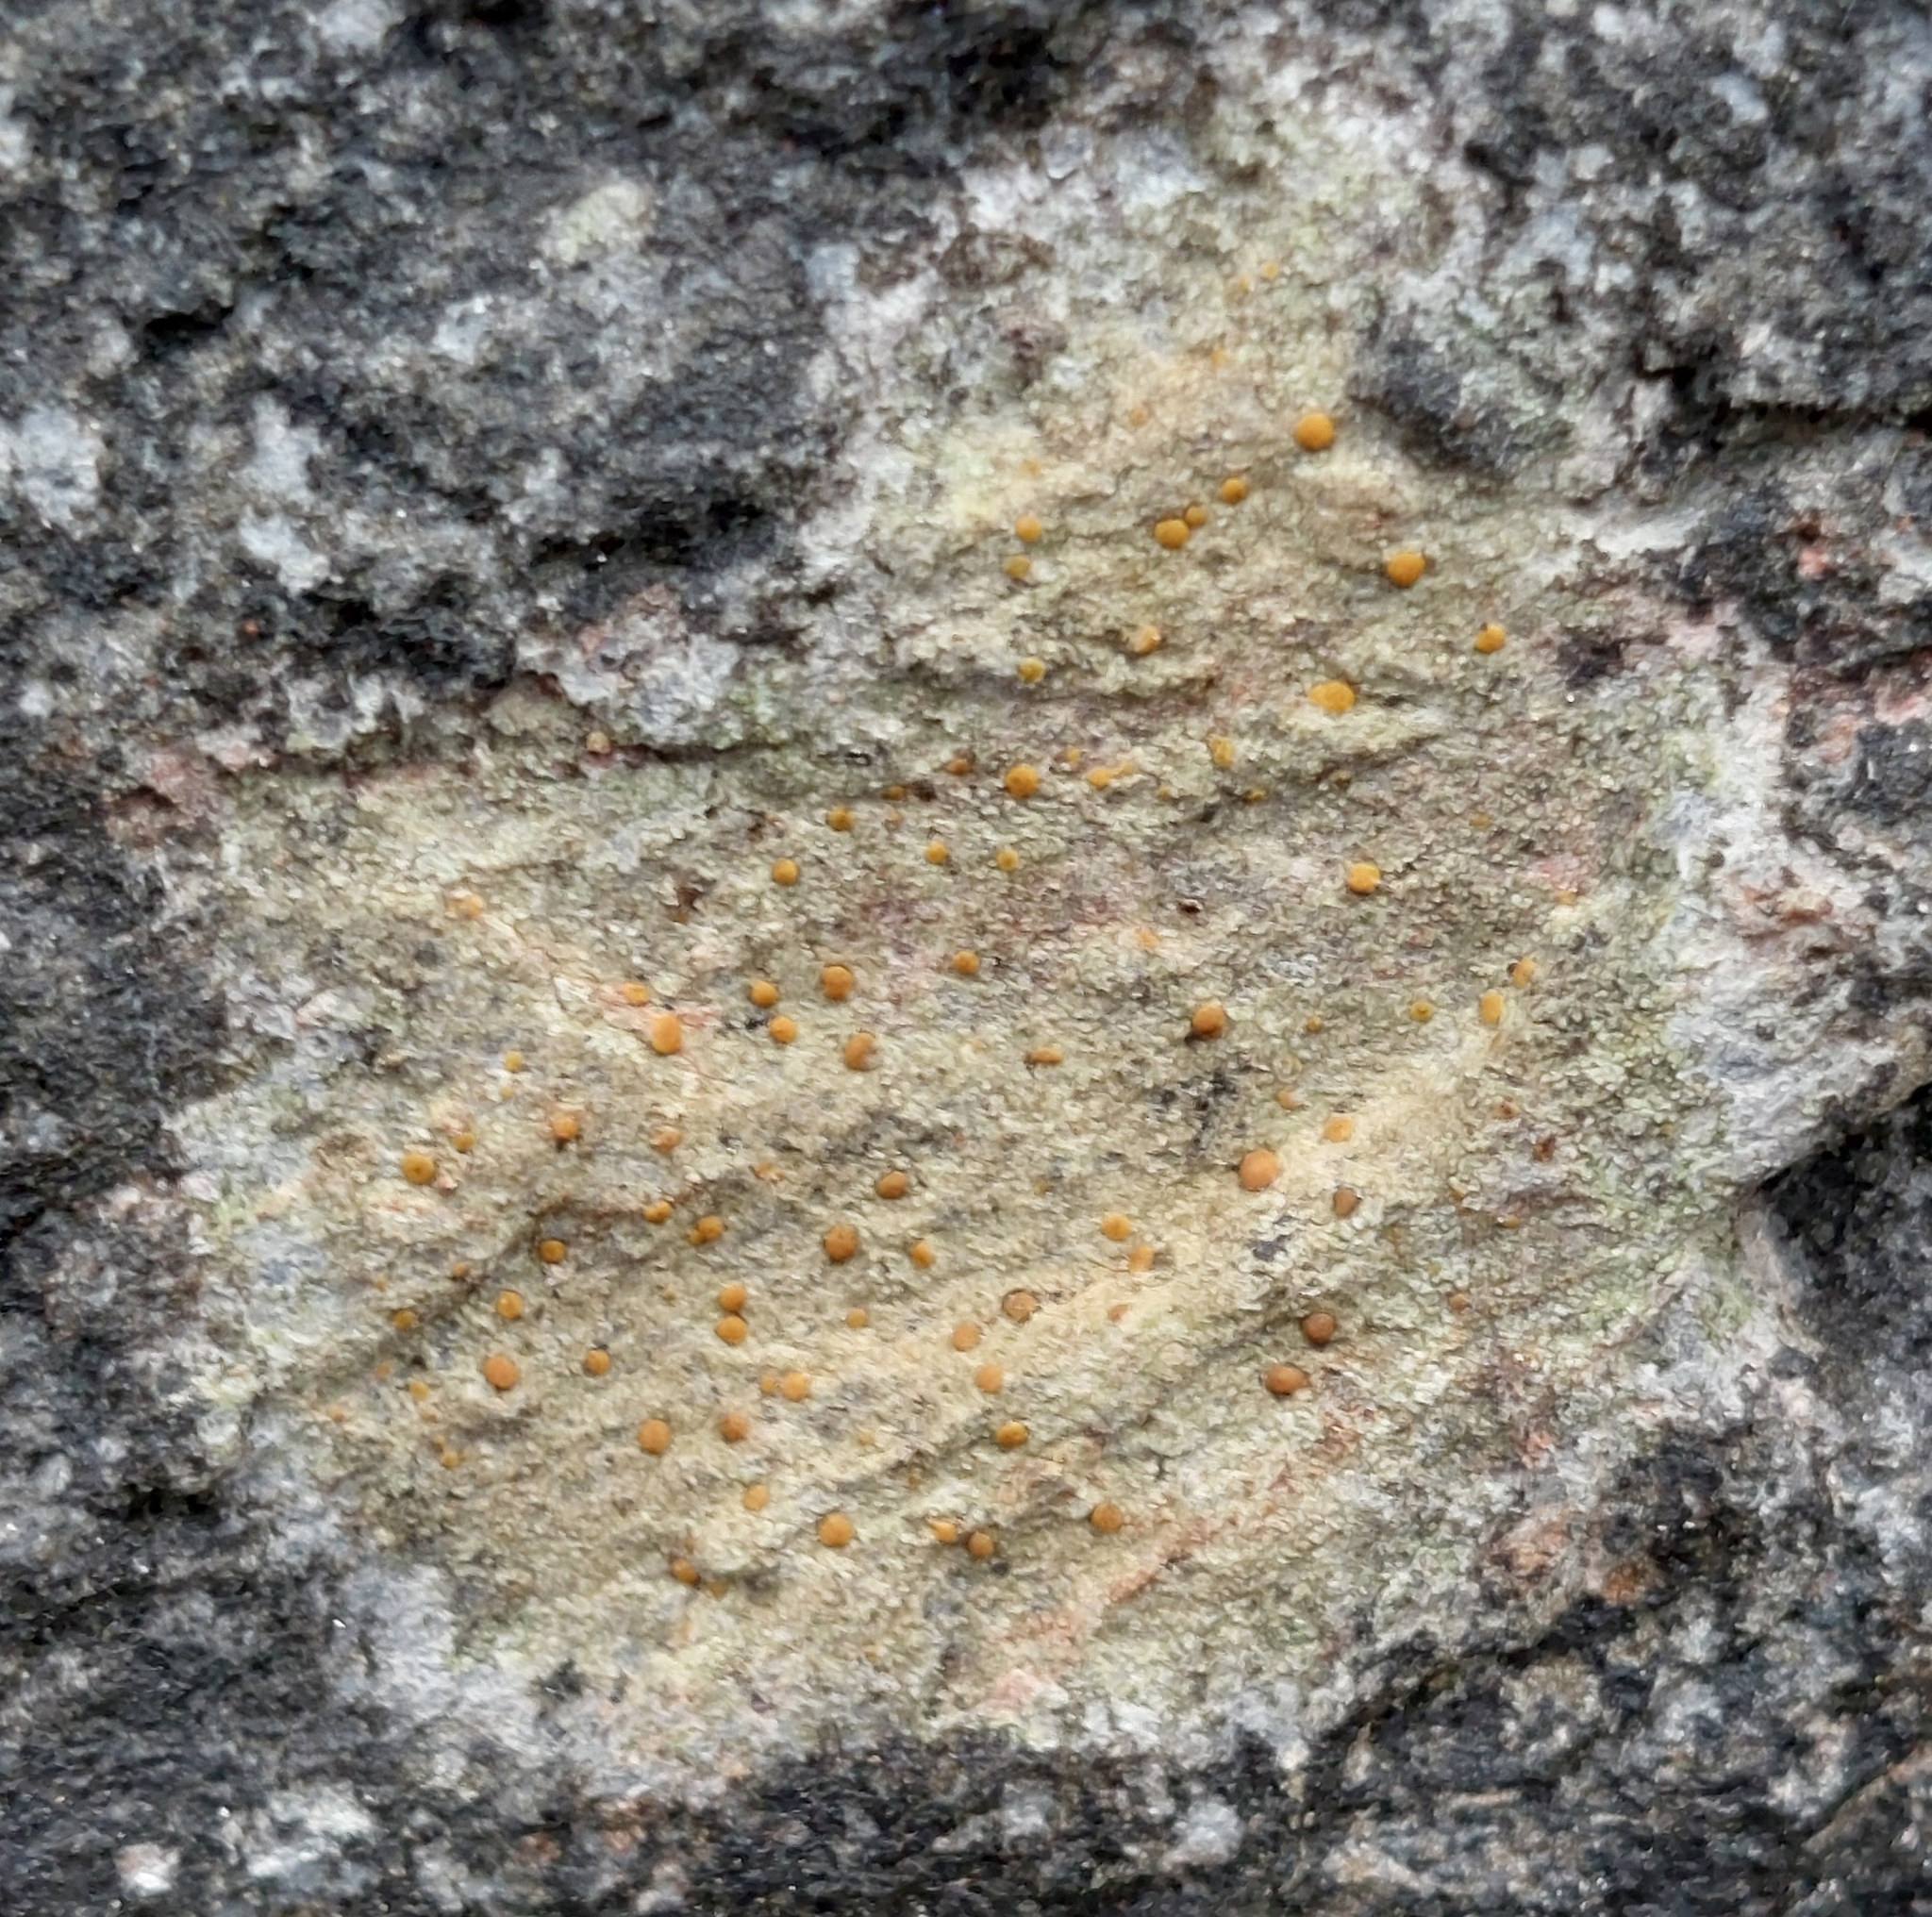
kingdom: Fungi
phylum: Ascomycota
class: Lecanoromycetes
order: Lecanorales
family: Psoraceae
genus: Protoblastenia
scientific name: Protoblastenia rupestris
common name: Chewing gum lichen
